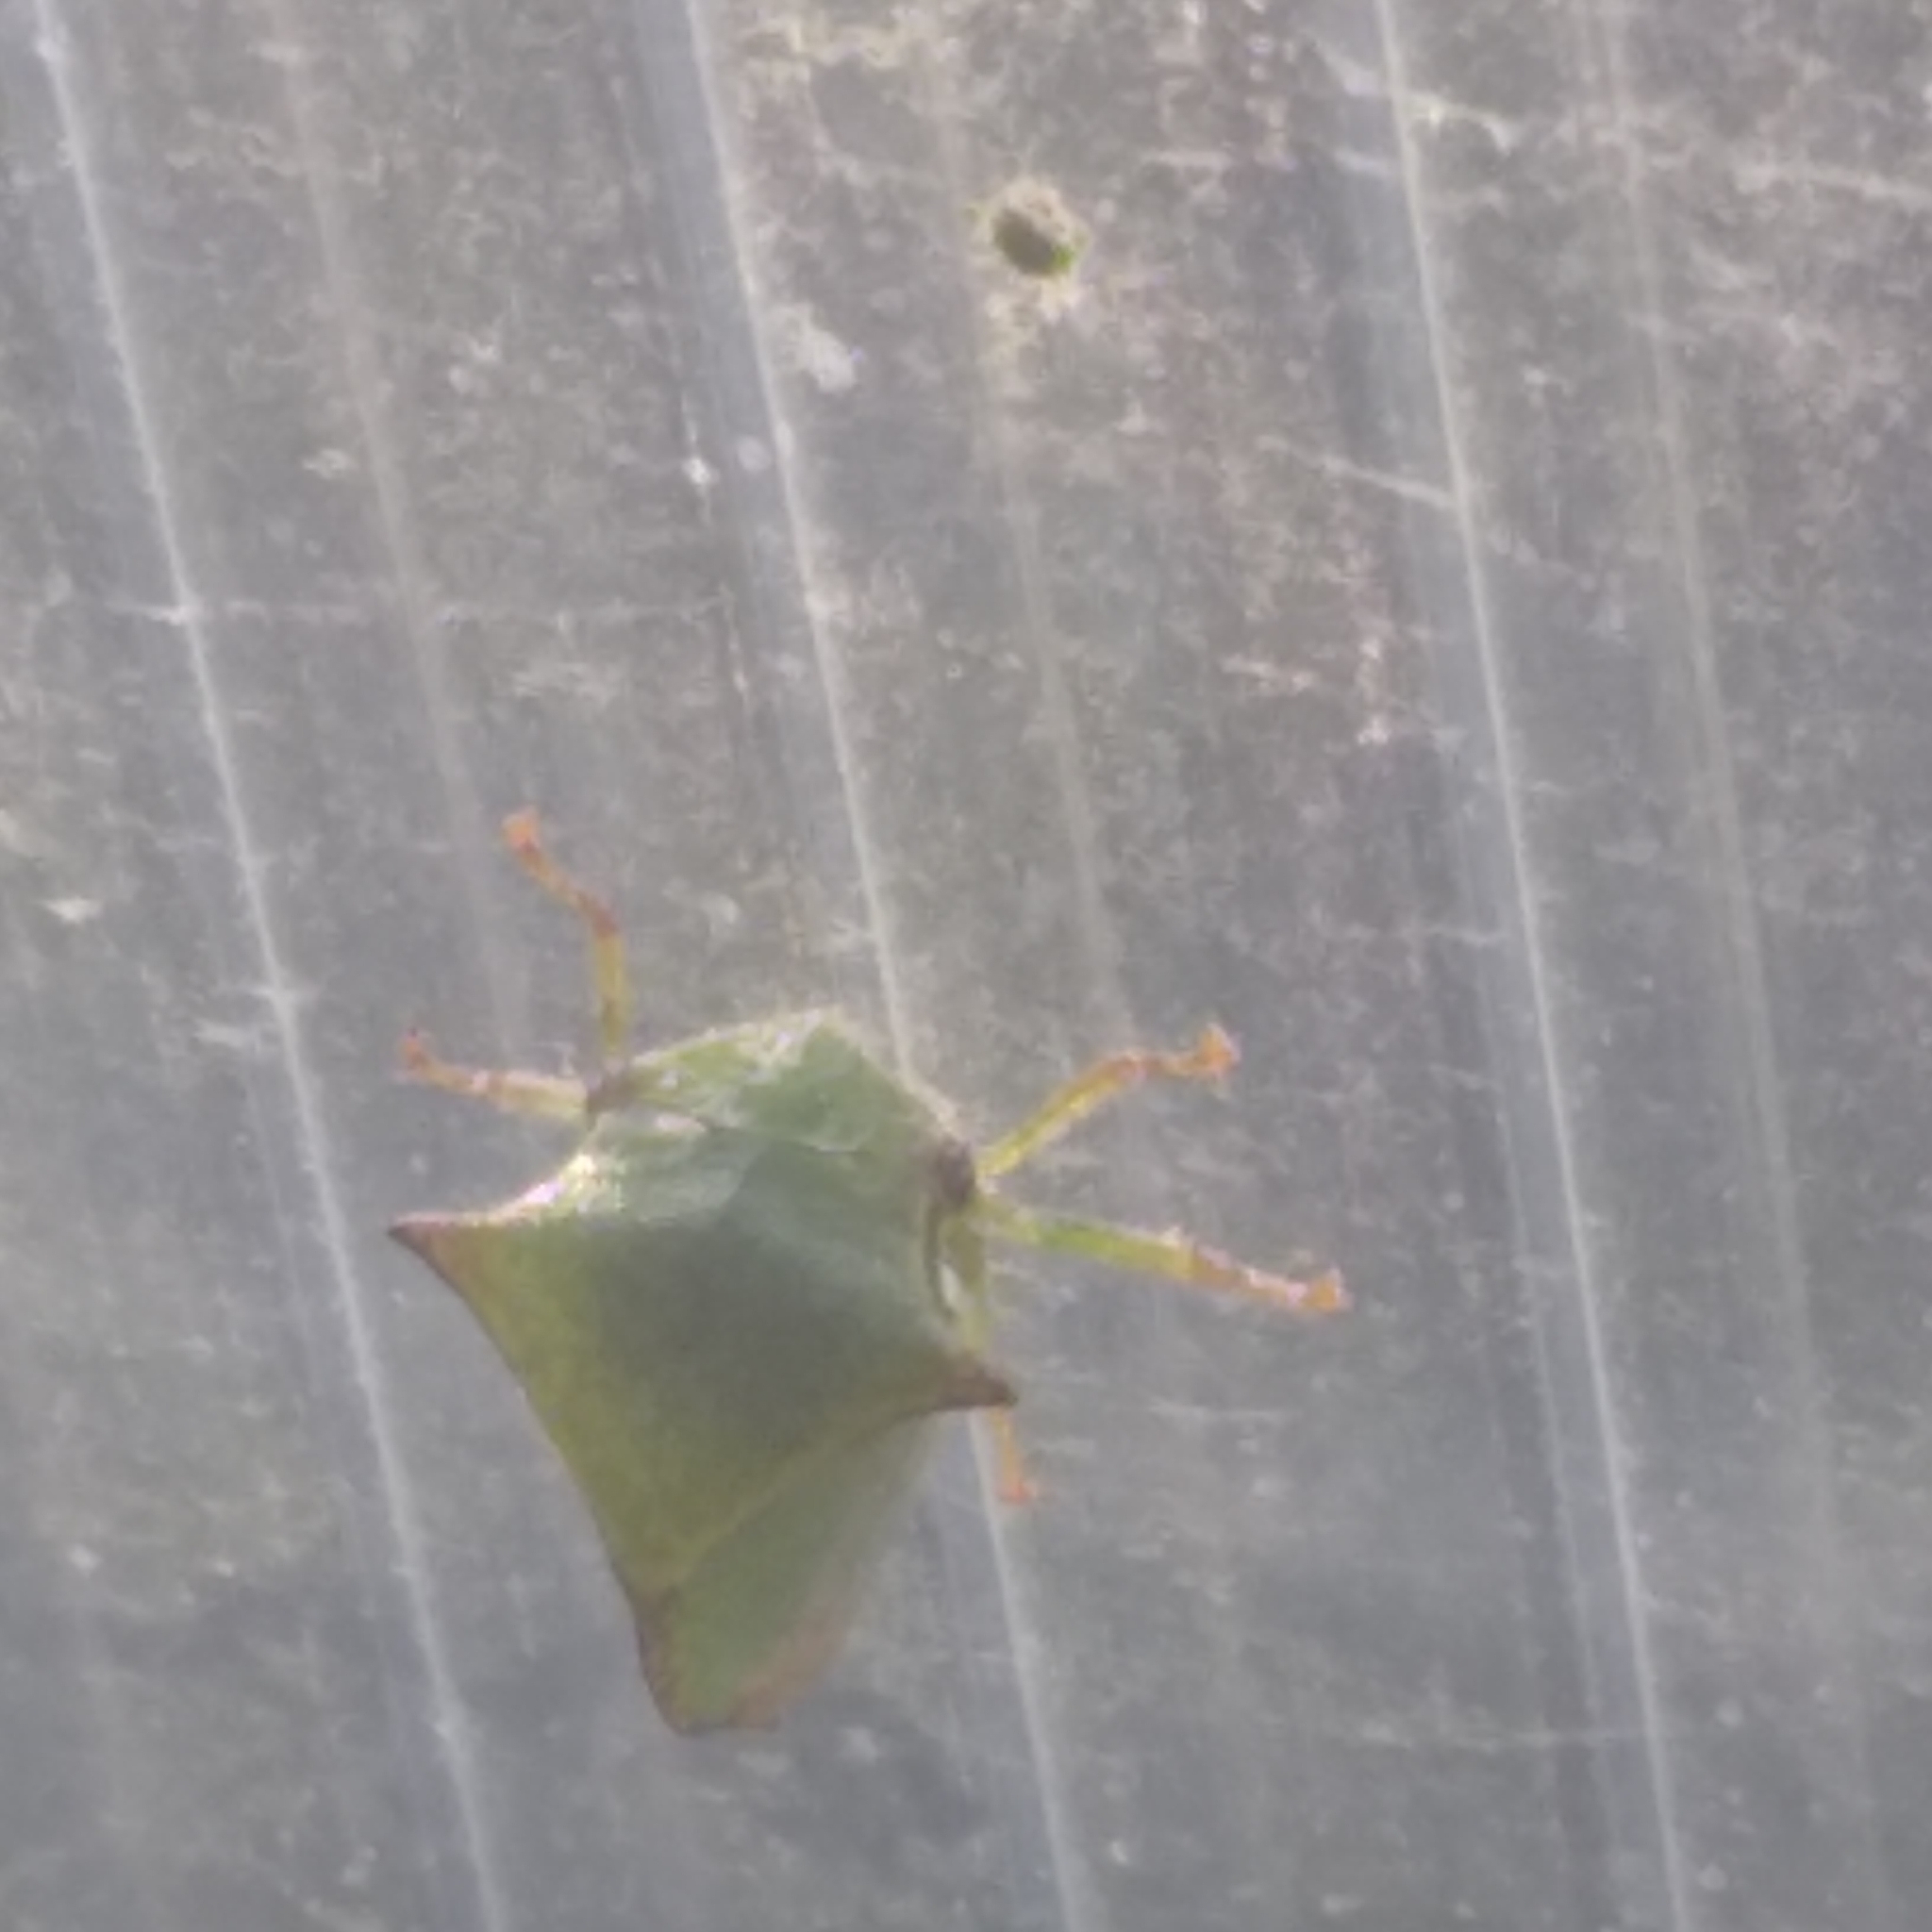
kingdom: Animalia
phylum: Arthropoda
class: Insecta
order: Hemiptera
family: Membracidae
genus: Stictocephala
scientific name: Stictocephala bisonia
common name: American buffalo treehopper
